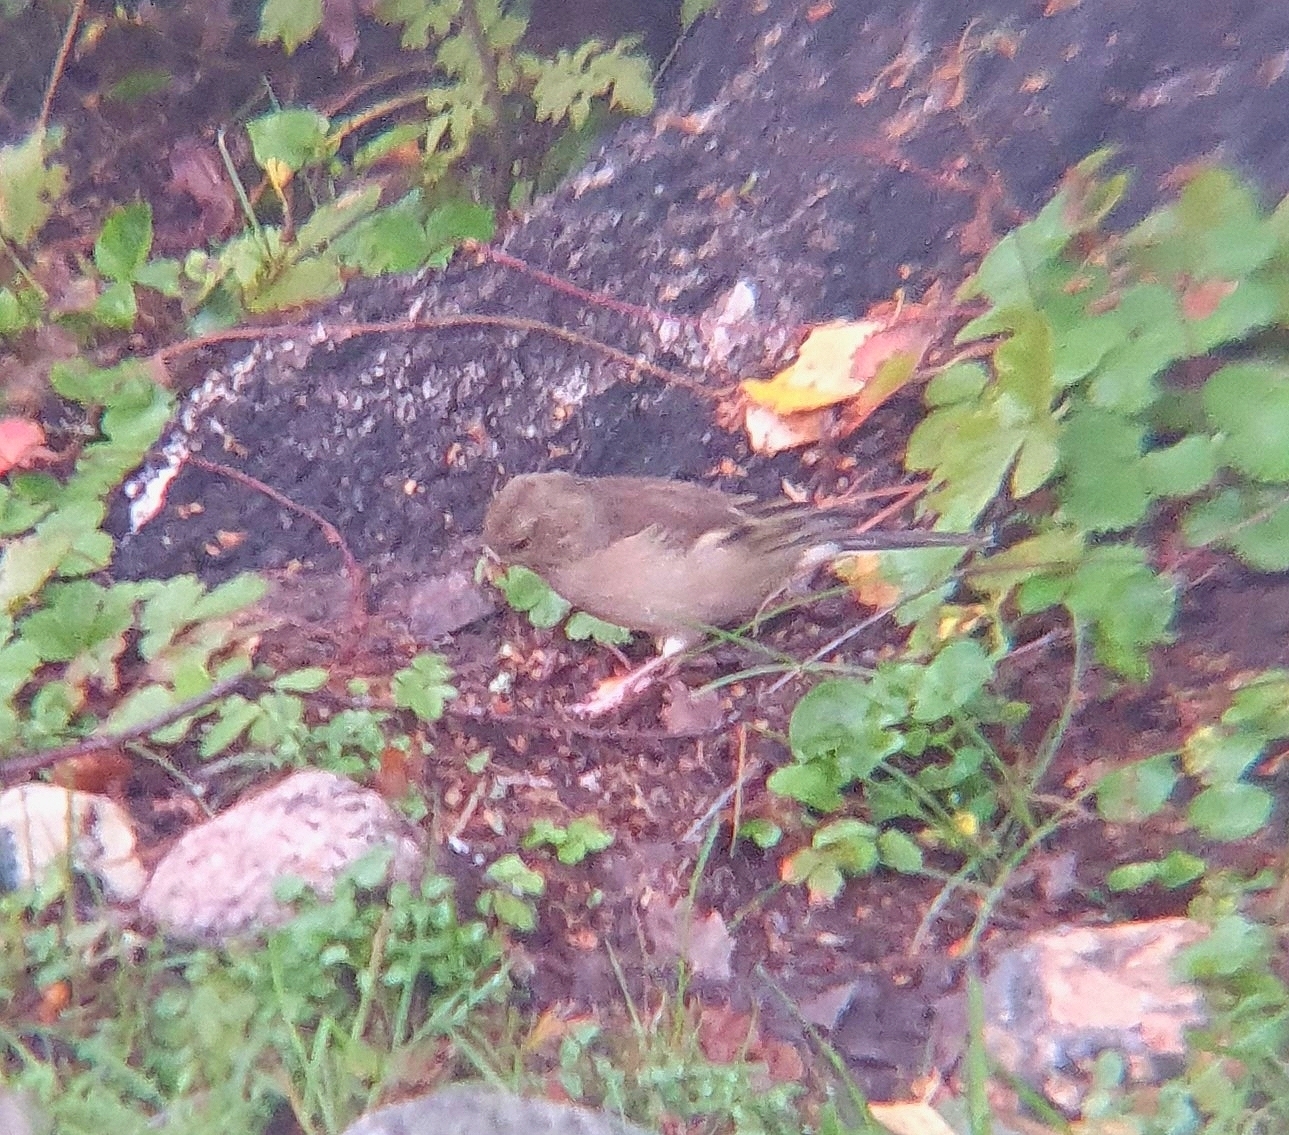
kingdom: Animalia
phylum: Chordata
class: Aves
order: Passeriformes
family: Fringillidae
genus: Fringilla
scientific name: Fringilla coelebs
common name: Common chaffinch
